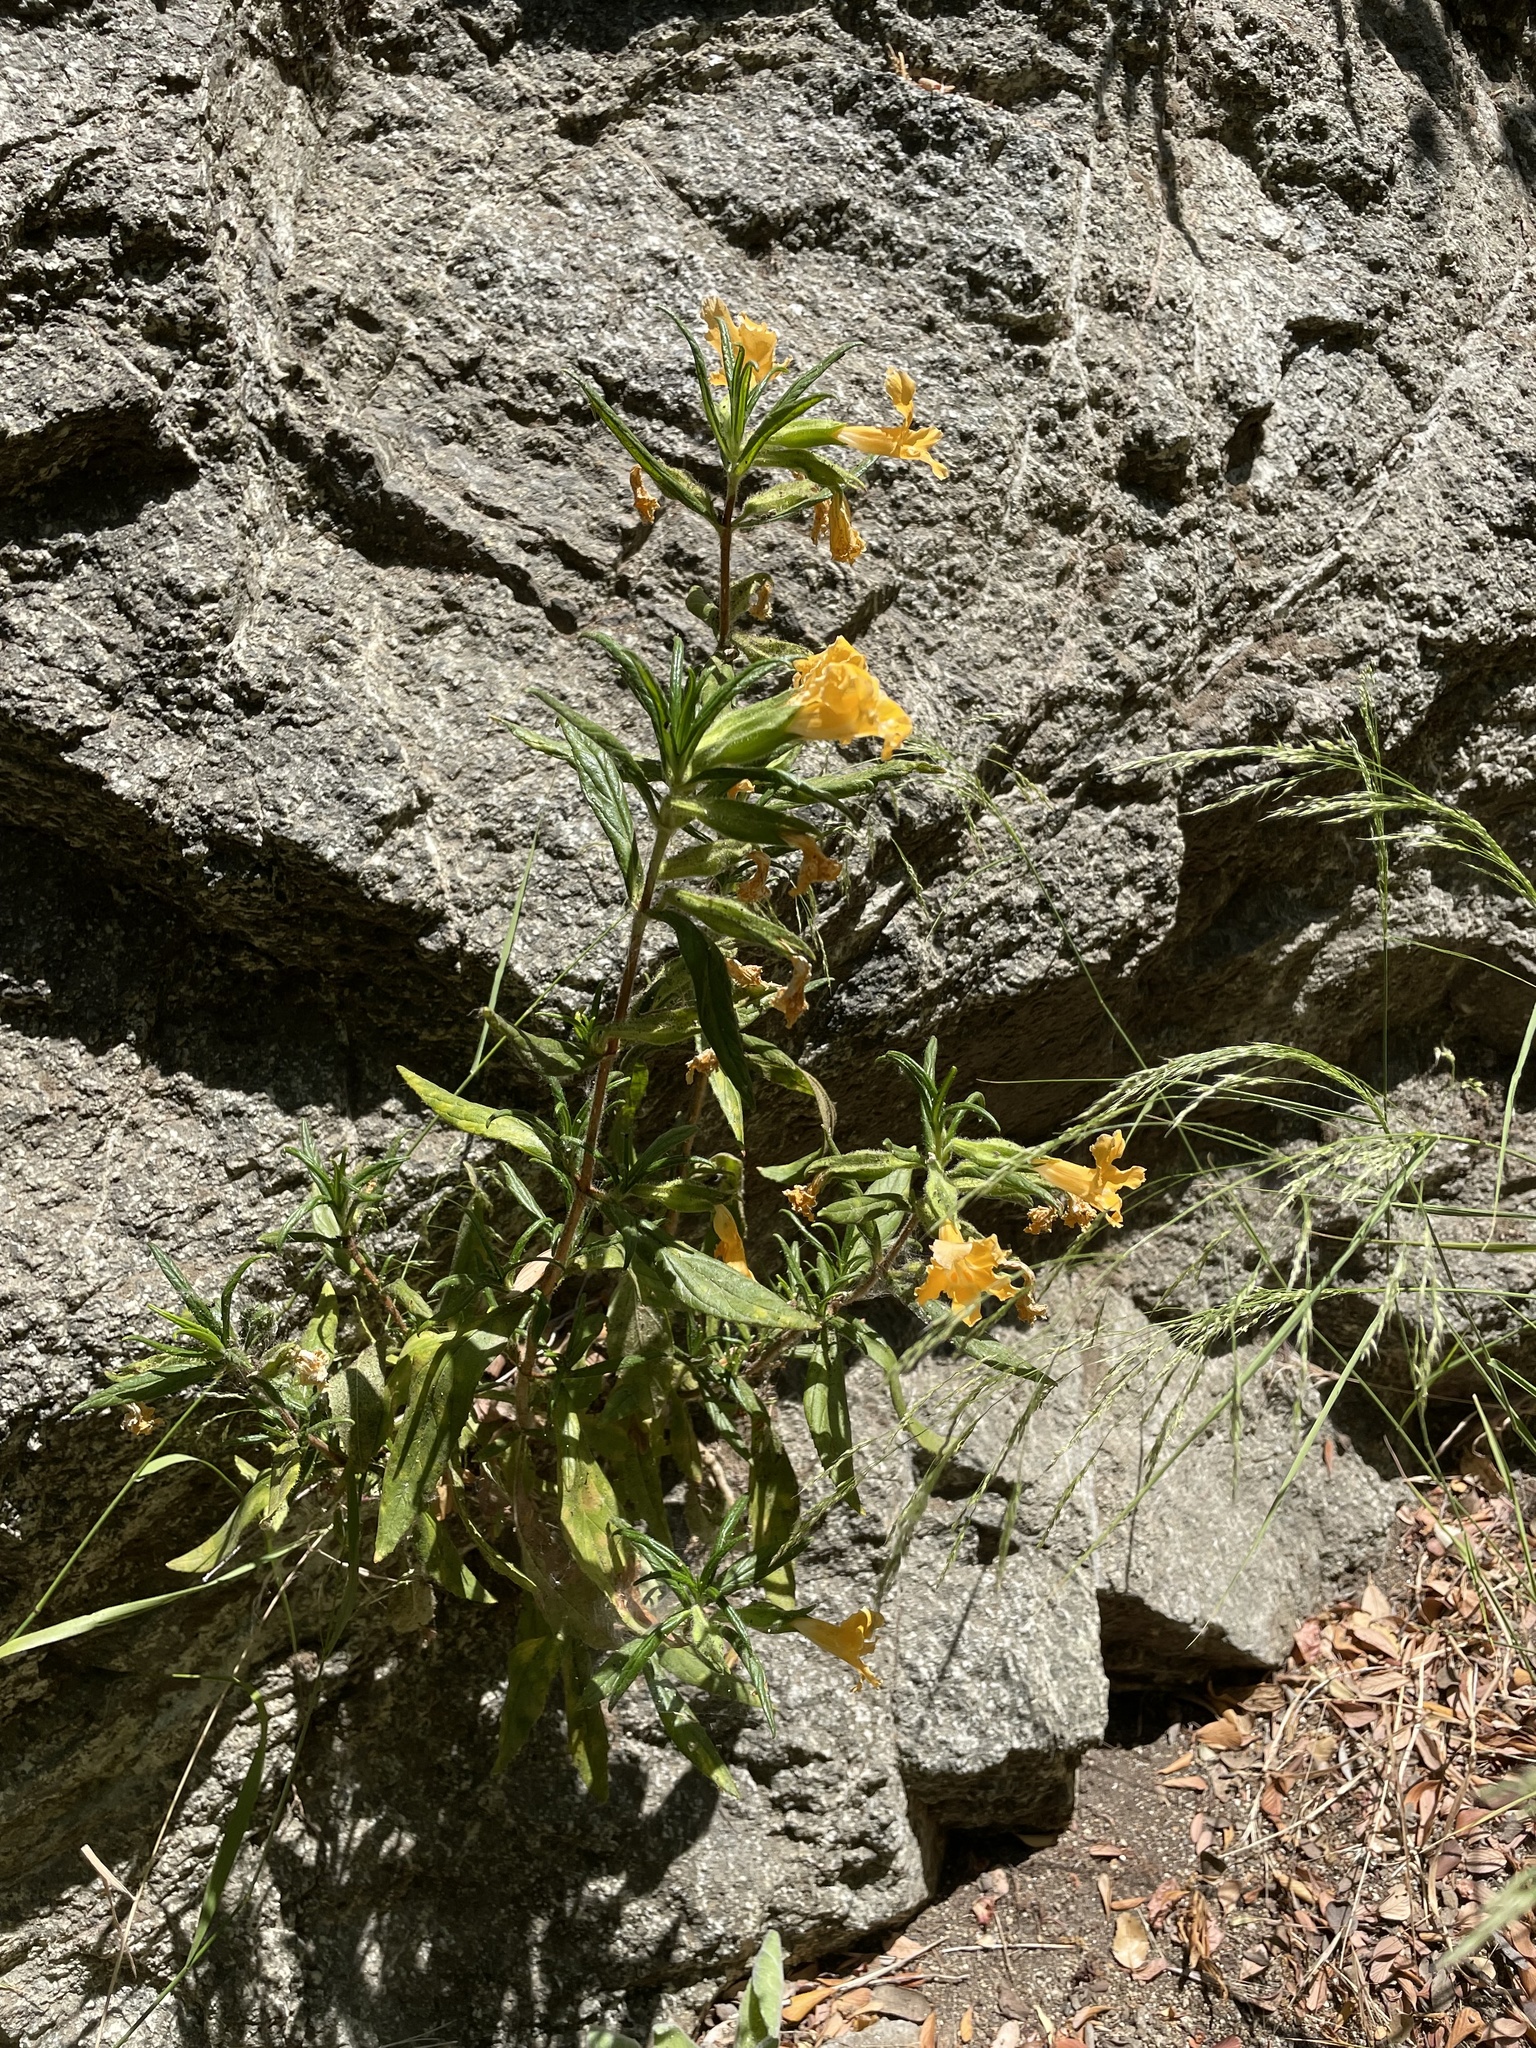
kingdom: Plantae
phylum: Tracheophyta
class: Magnoliopsida
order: Lamiales
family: Phrymaceae
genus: Diplacus
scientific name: Diplacus longiflorus
